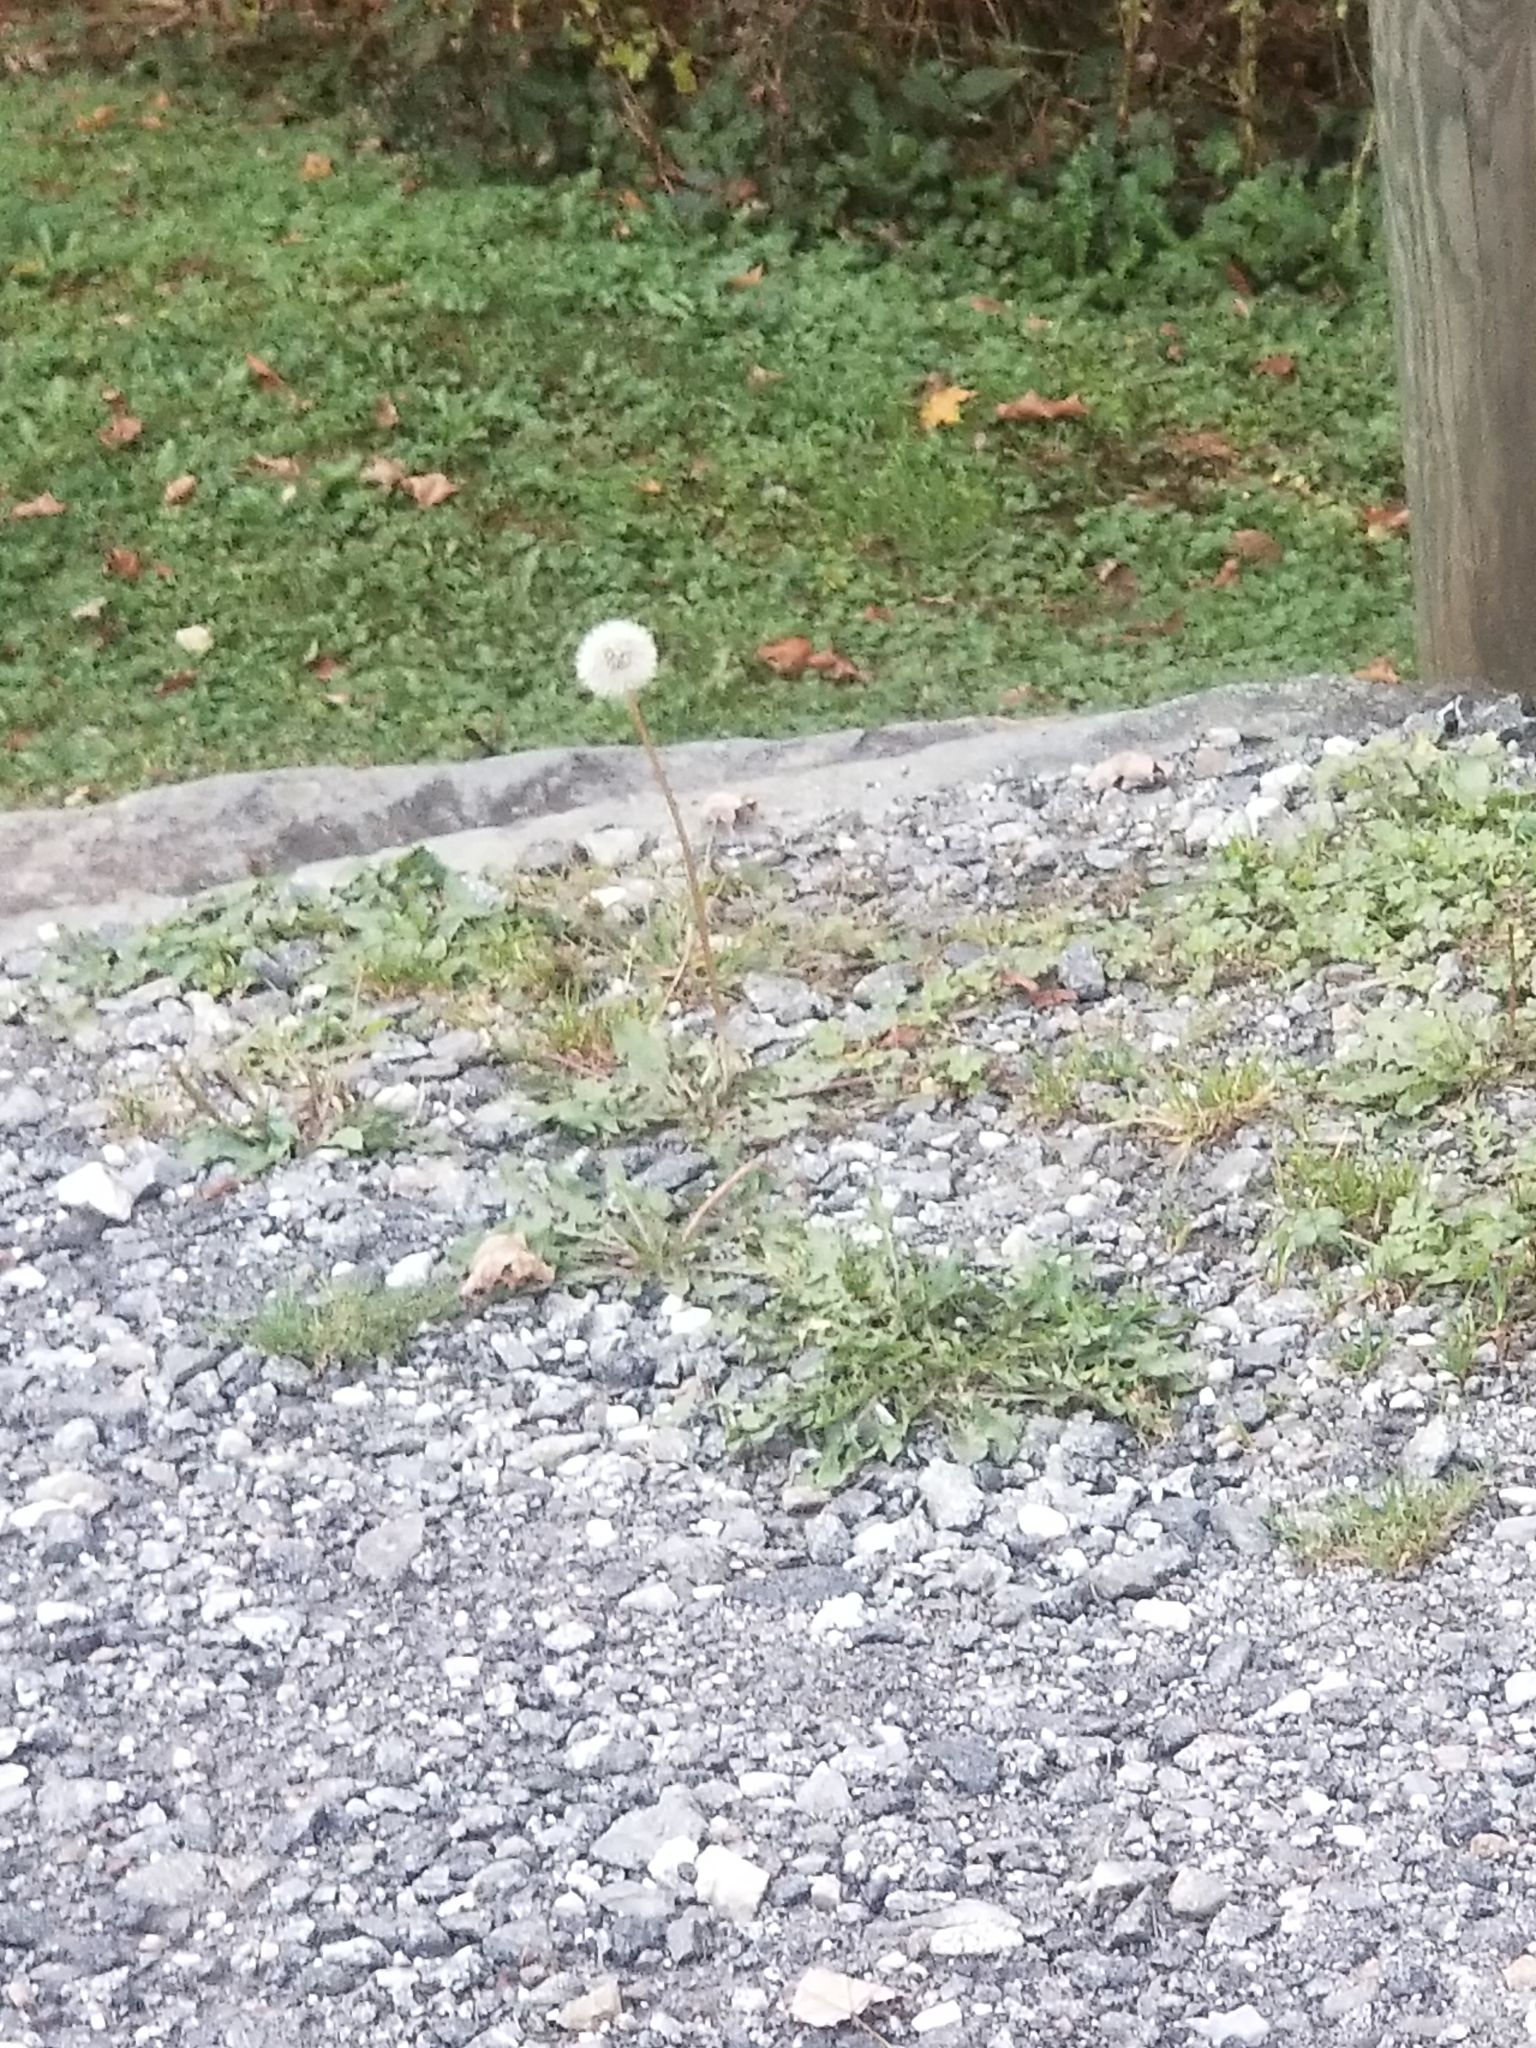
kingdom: Plantae
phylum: Tracheophyta
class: Magnoliopsida
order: Asterales
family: Asteraceae
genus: Taraxacum
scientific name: Taraxacum officinale
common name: Common dandelion
